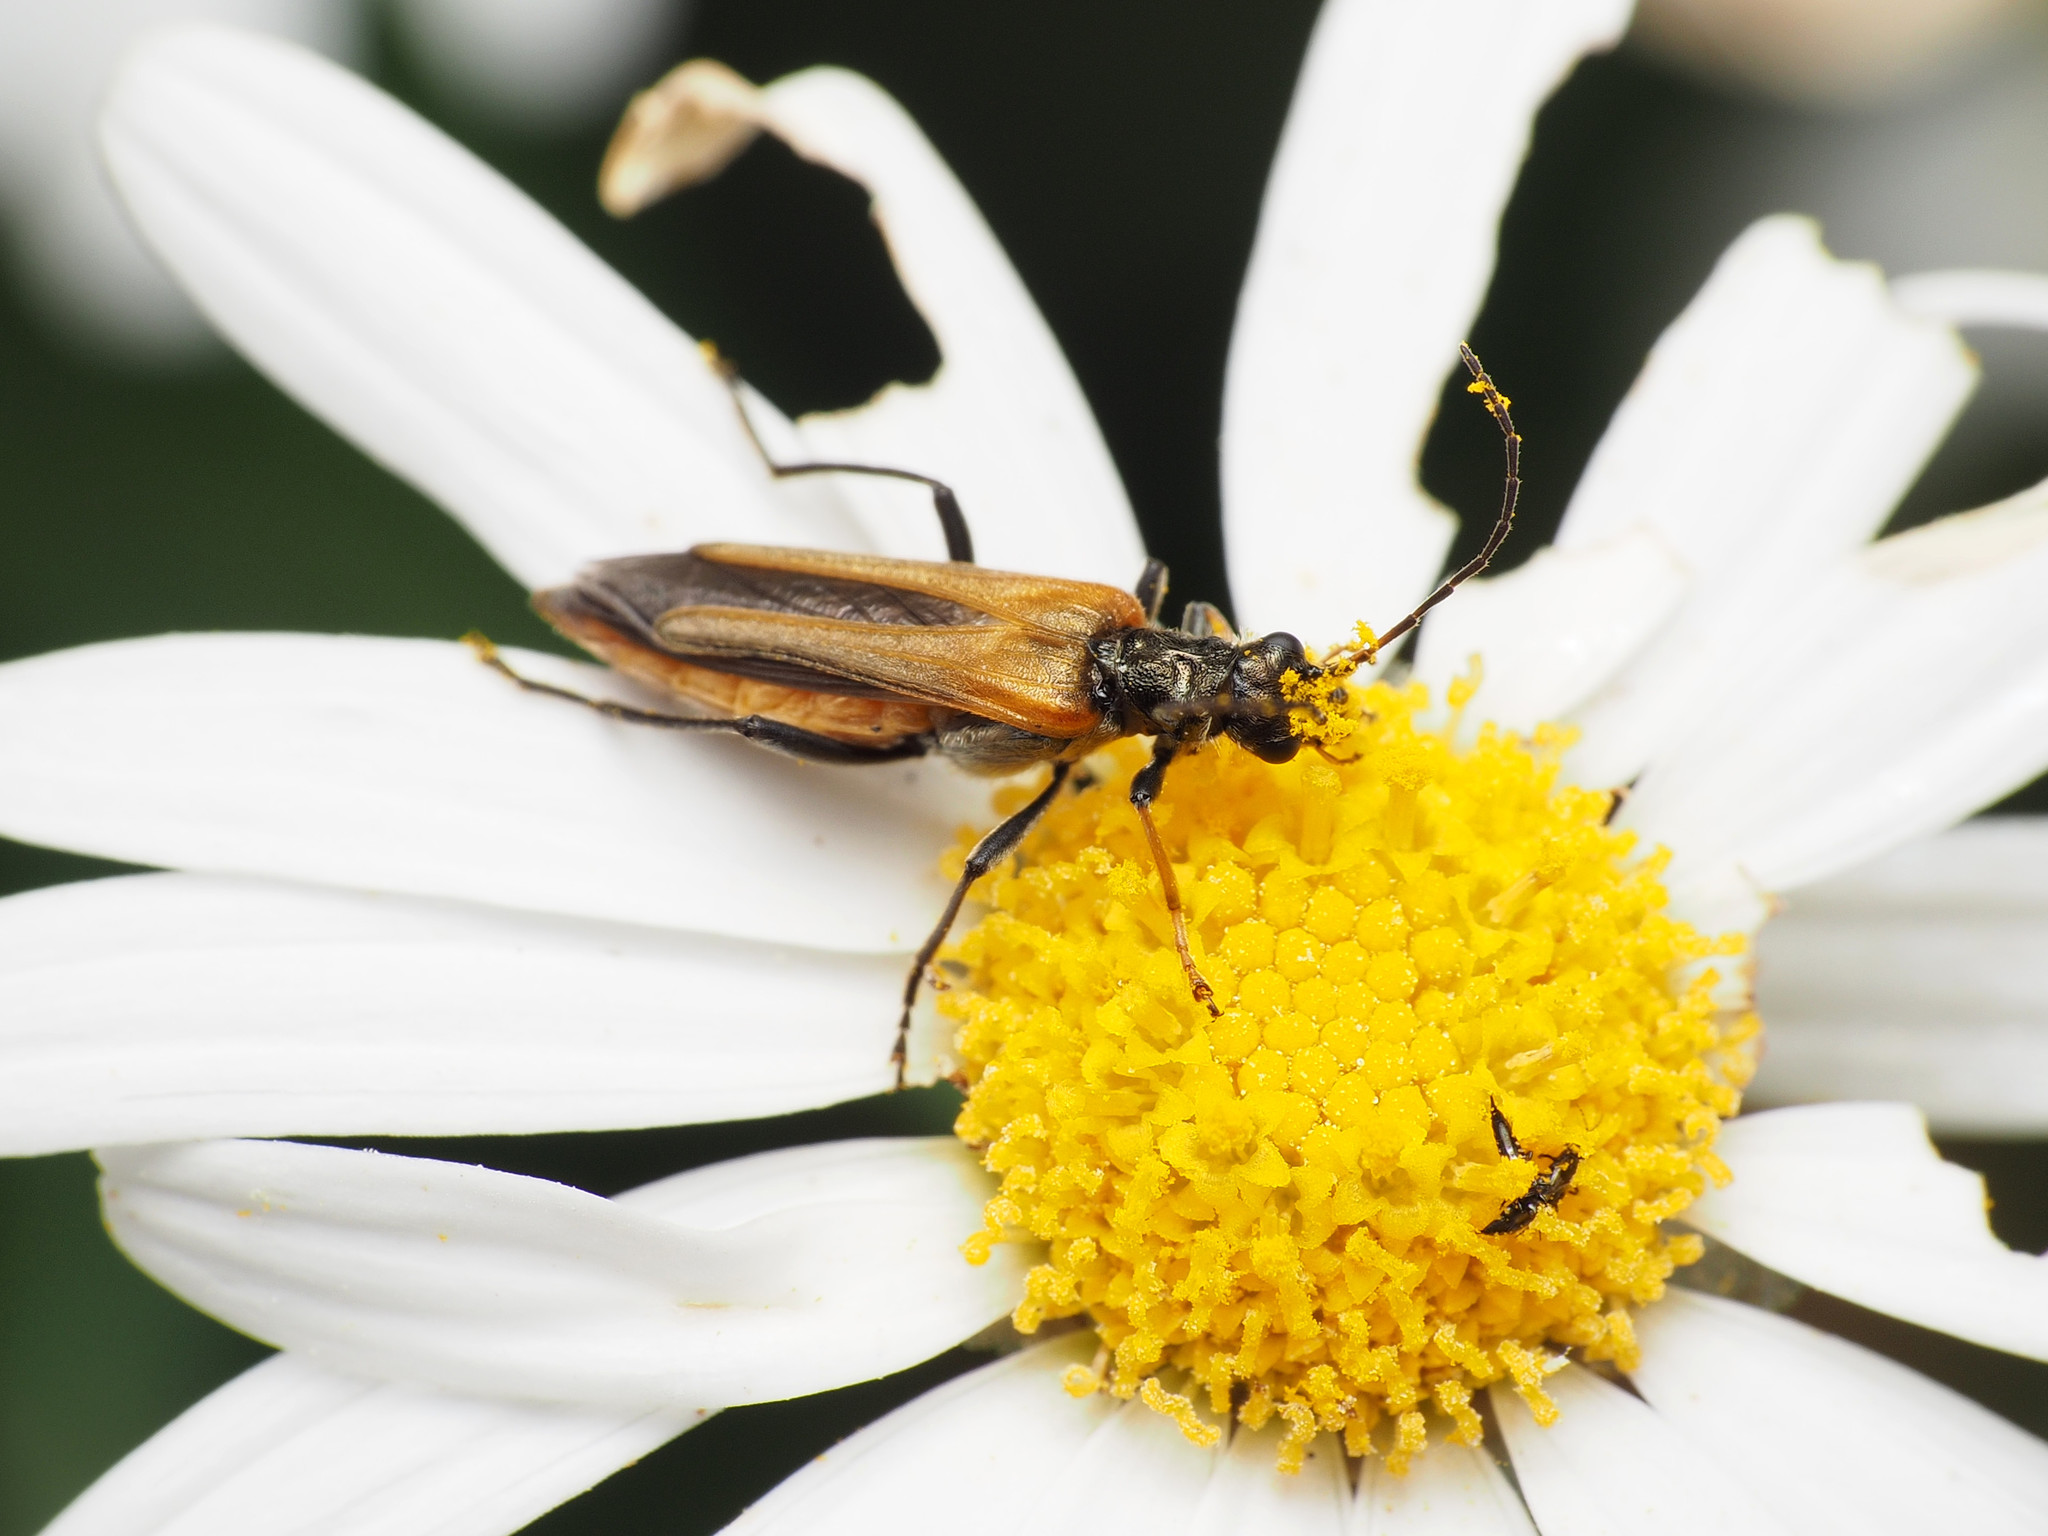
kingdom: Animalia
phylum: Arthropoda
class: Insecta
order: Coleoptera
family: Oedemeridae
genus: Oedemera
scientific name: Oedemera simplex
